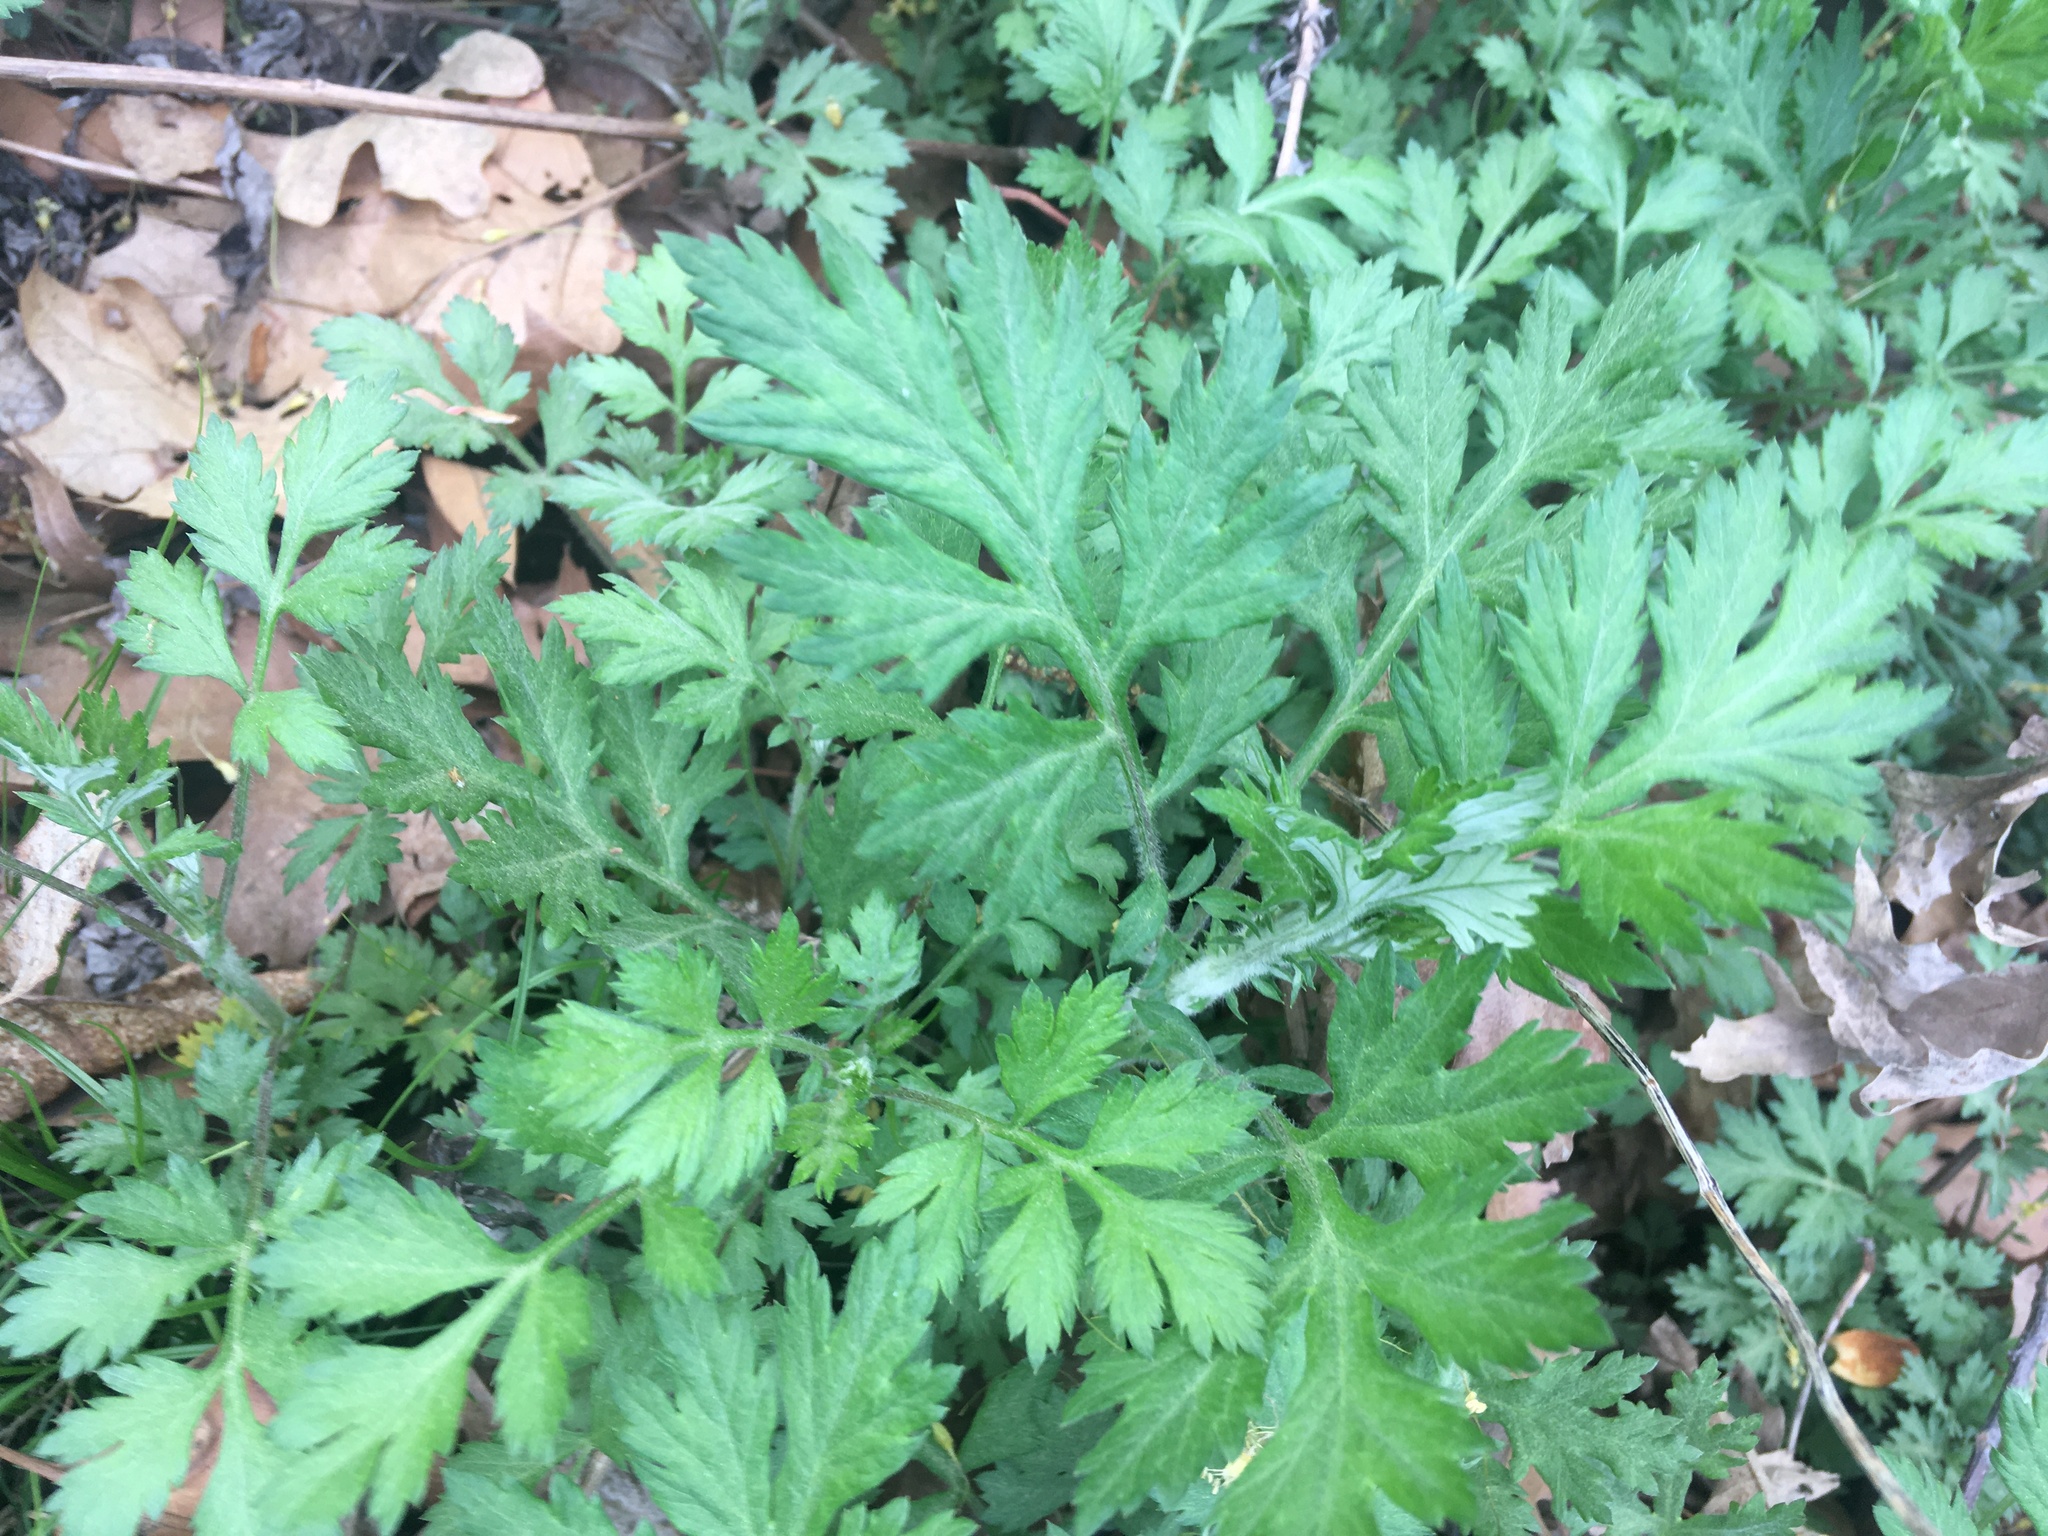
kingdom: Plantae
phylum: Tracheophyta
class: Magnoliopsida
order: Asterales
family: Asteraceae
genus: Artemisia
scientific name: Artemisia vulgaris
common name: Mugwort
